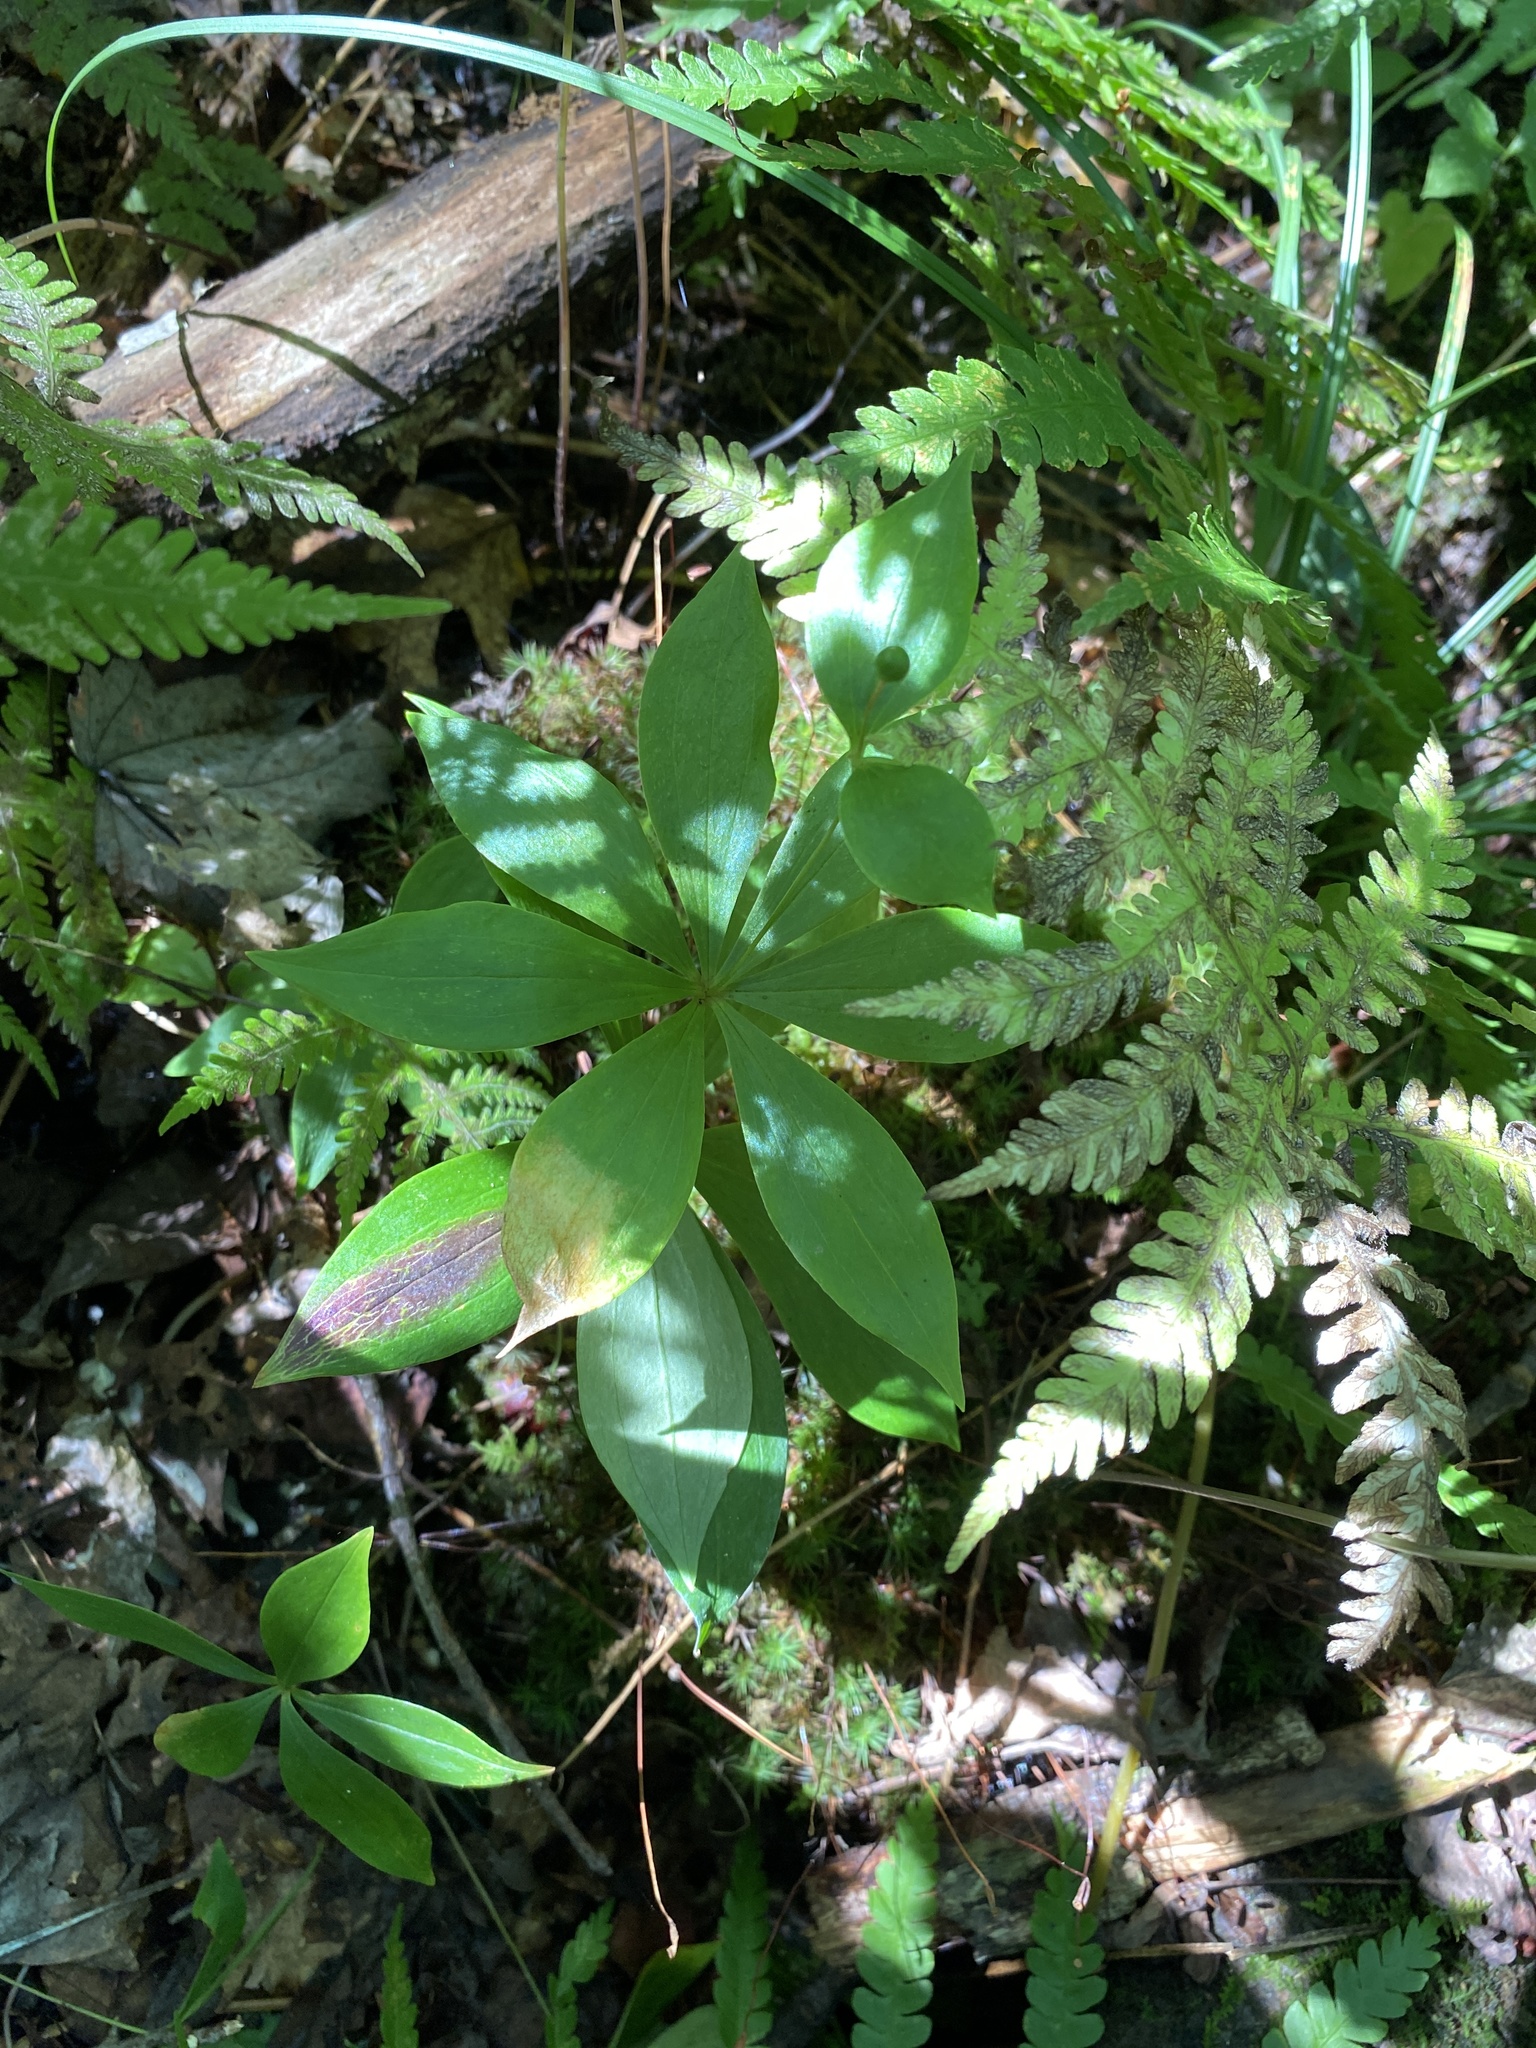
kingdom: Plantae
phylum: Tracheophyta
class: Liliopsida
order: Liliales
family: Liliaceae
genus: Medeola
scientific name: Medeola virginiana
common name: Indian cucumber-root
